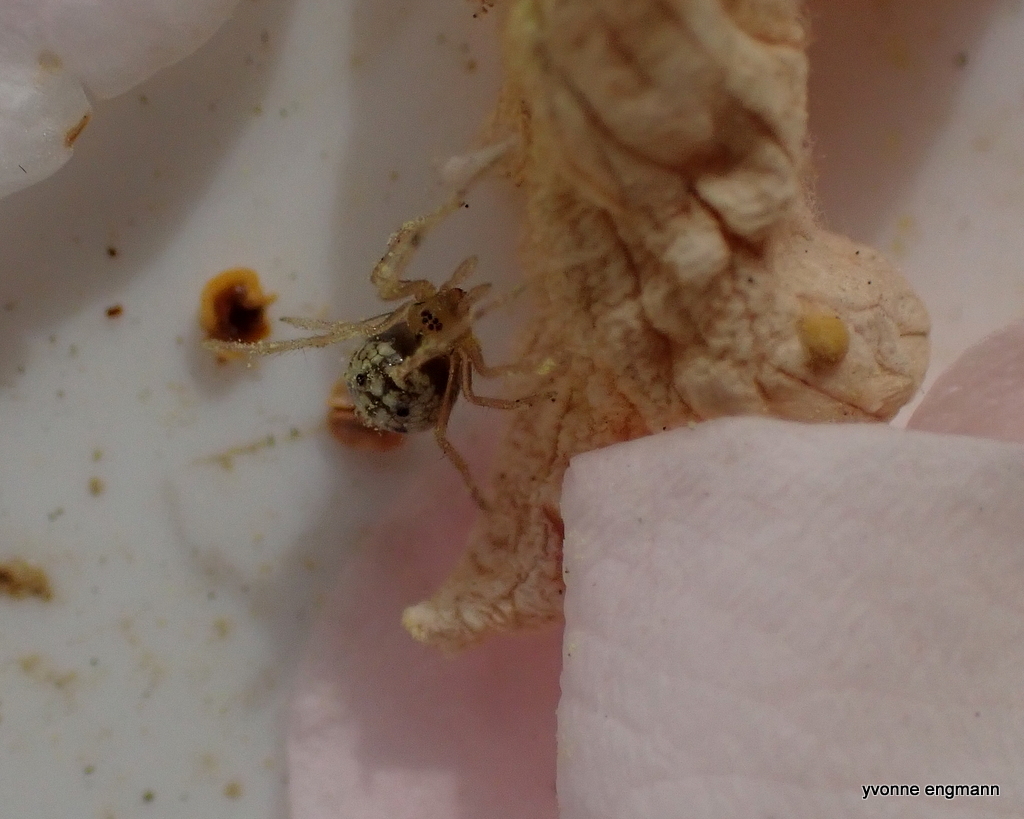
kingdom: Animalia
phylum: Arthropoda
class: Arachnida
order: Araneae
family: Theridiidae
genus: Enoplognatha
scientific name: Enoplognatha ovata
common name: Common candy-striped spider
